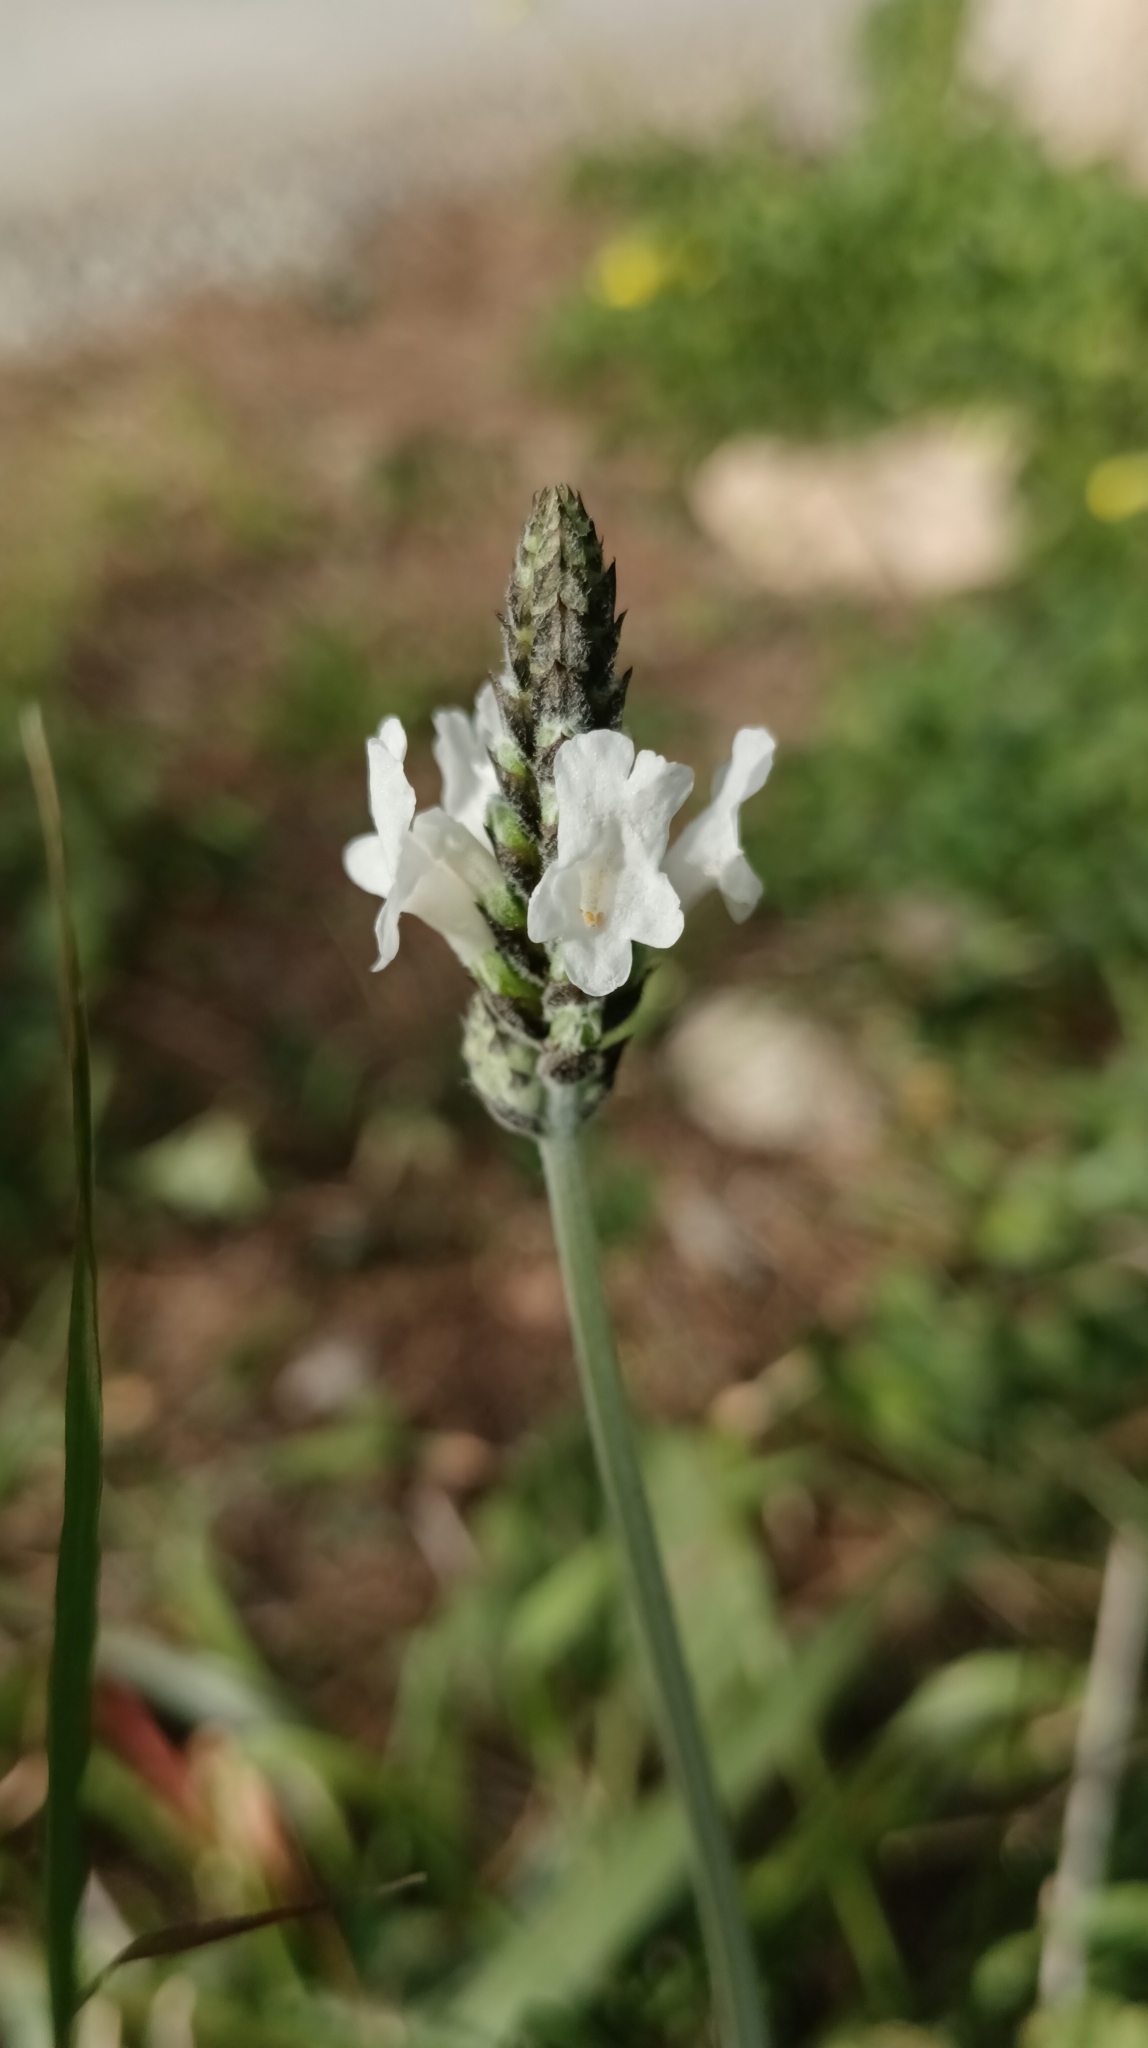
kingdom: Plantae
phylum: Tracheophyta
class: Magnoliopsida
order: Lamiales
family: Lamiaceae
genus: Lavandula
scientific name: Lavandula multifida
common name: Fern-leaf lavender
